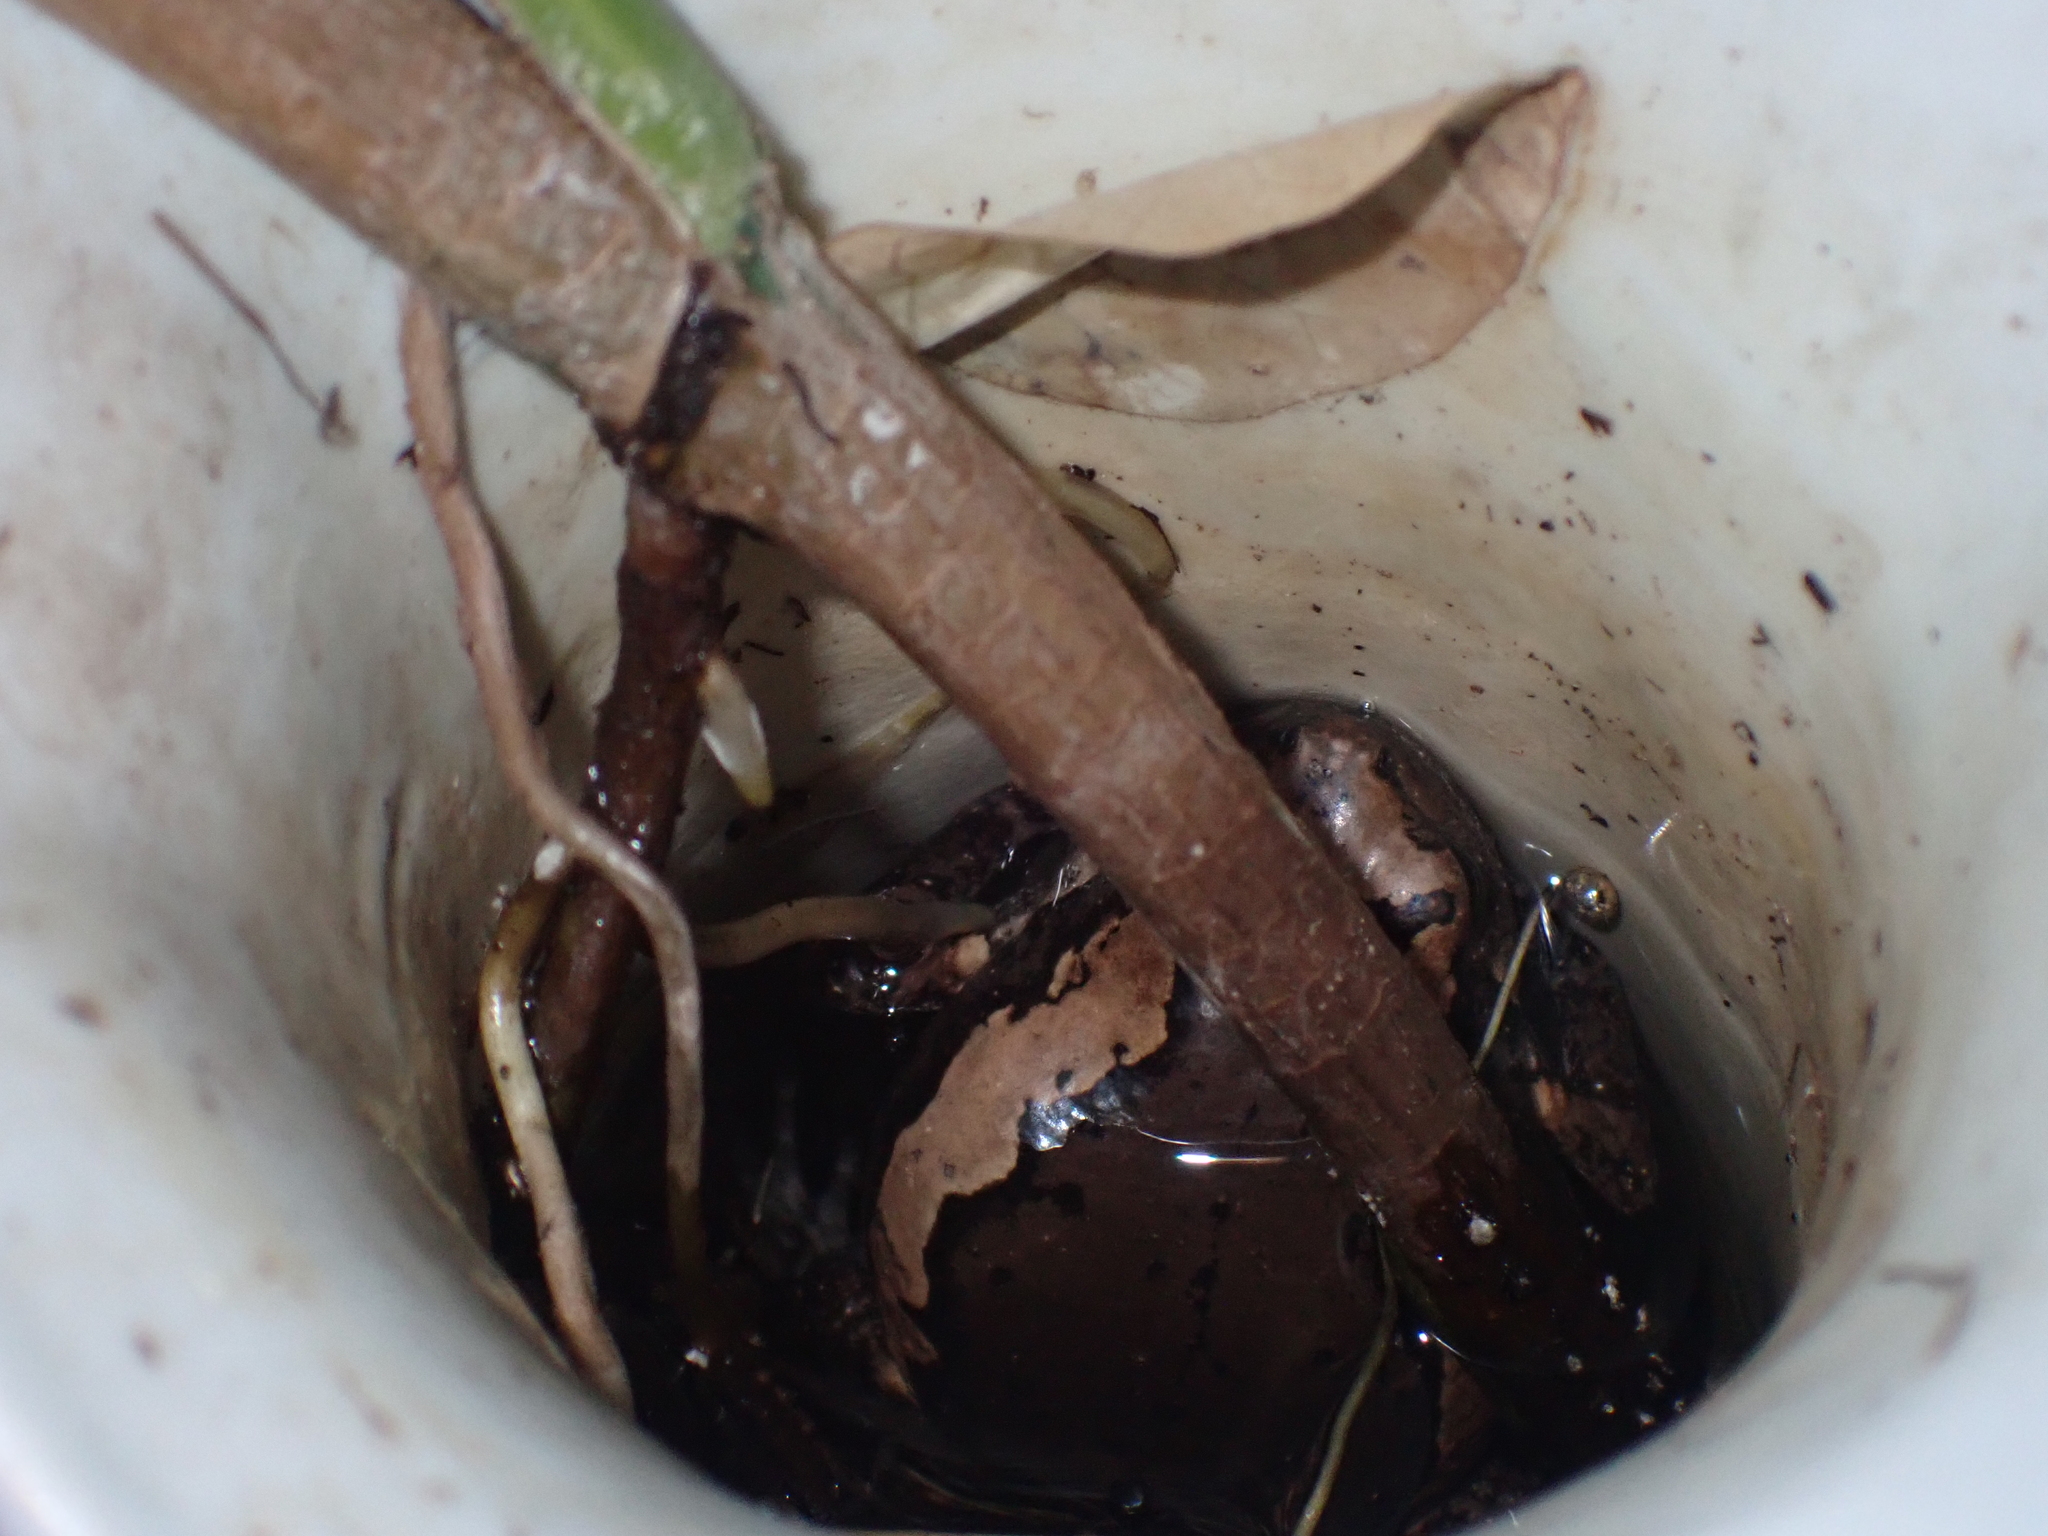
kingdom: Animalia
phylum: Chordata
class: Amphibia
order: Anura
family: Microhylidae
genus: Kaloula
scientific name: Kaloula pulchra
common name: Common,banded bullfrog
